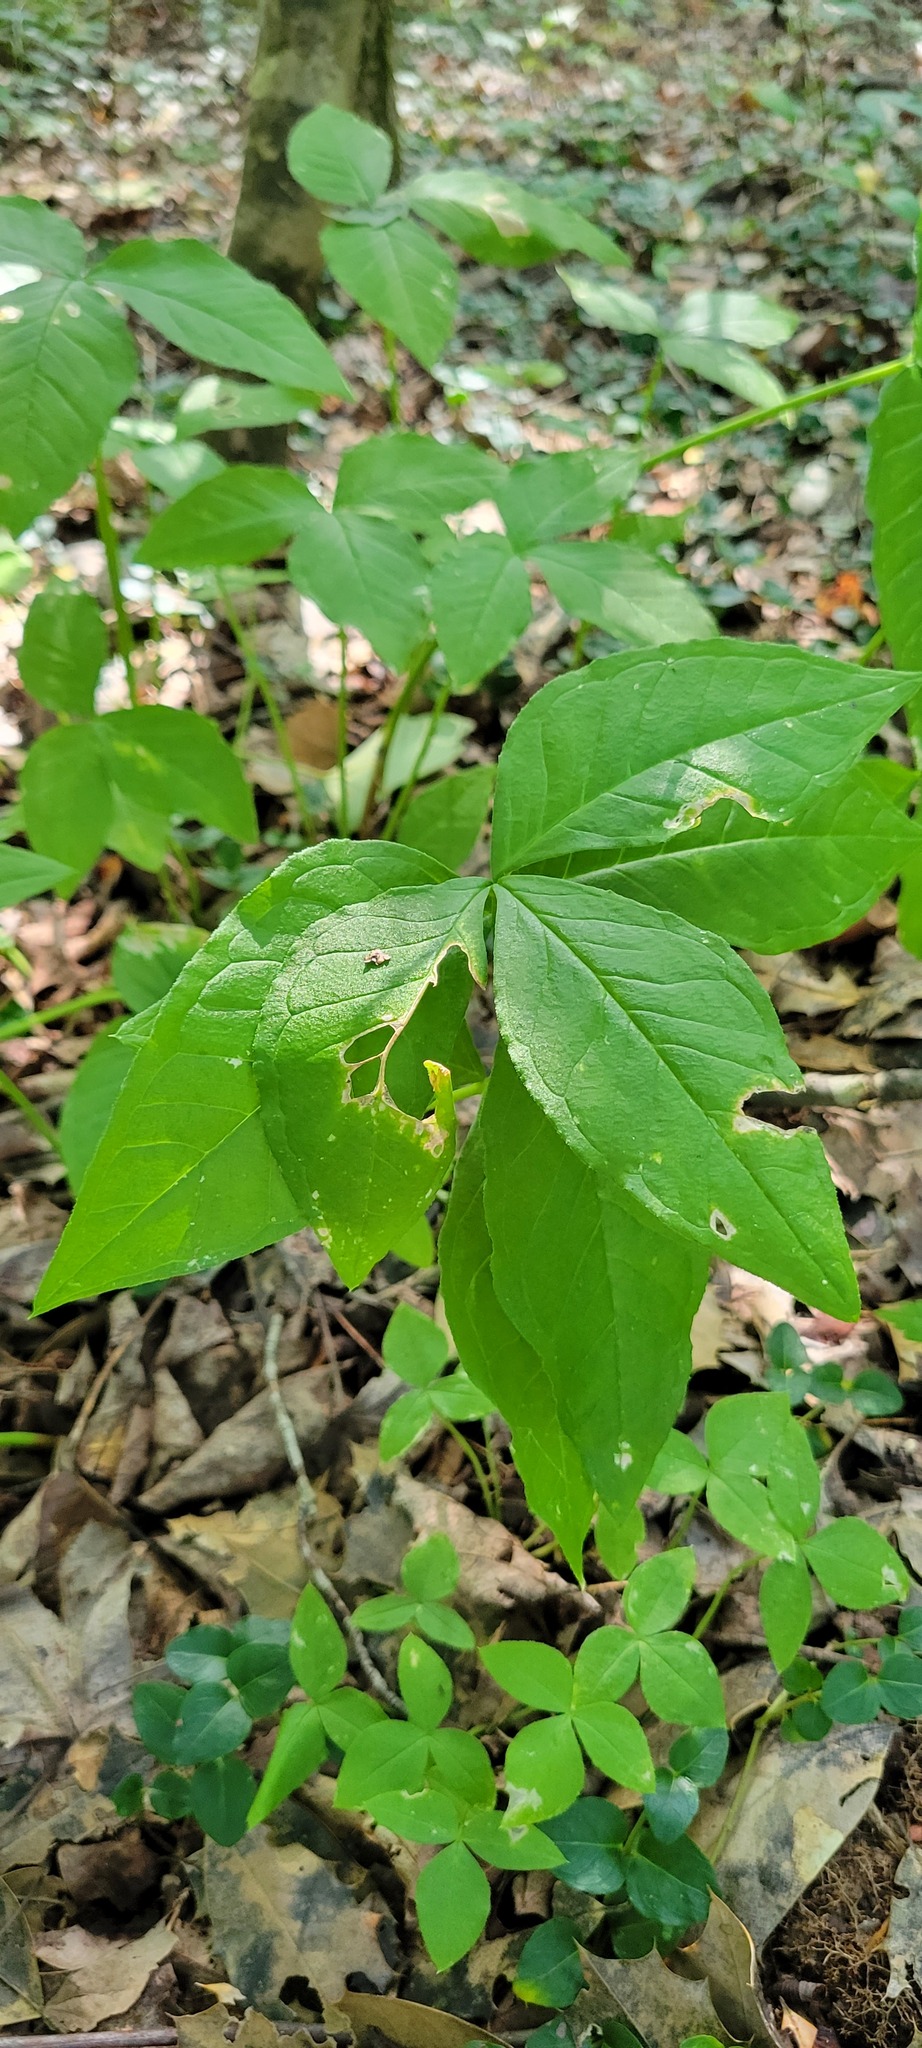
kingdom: Plantae
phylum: Tracheophyta
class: Liliopsida
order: Alismatales
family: Araceae
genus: Arisaema
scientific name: Arisaema triphyllum
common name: Jack-in-the-pulpit
